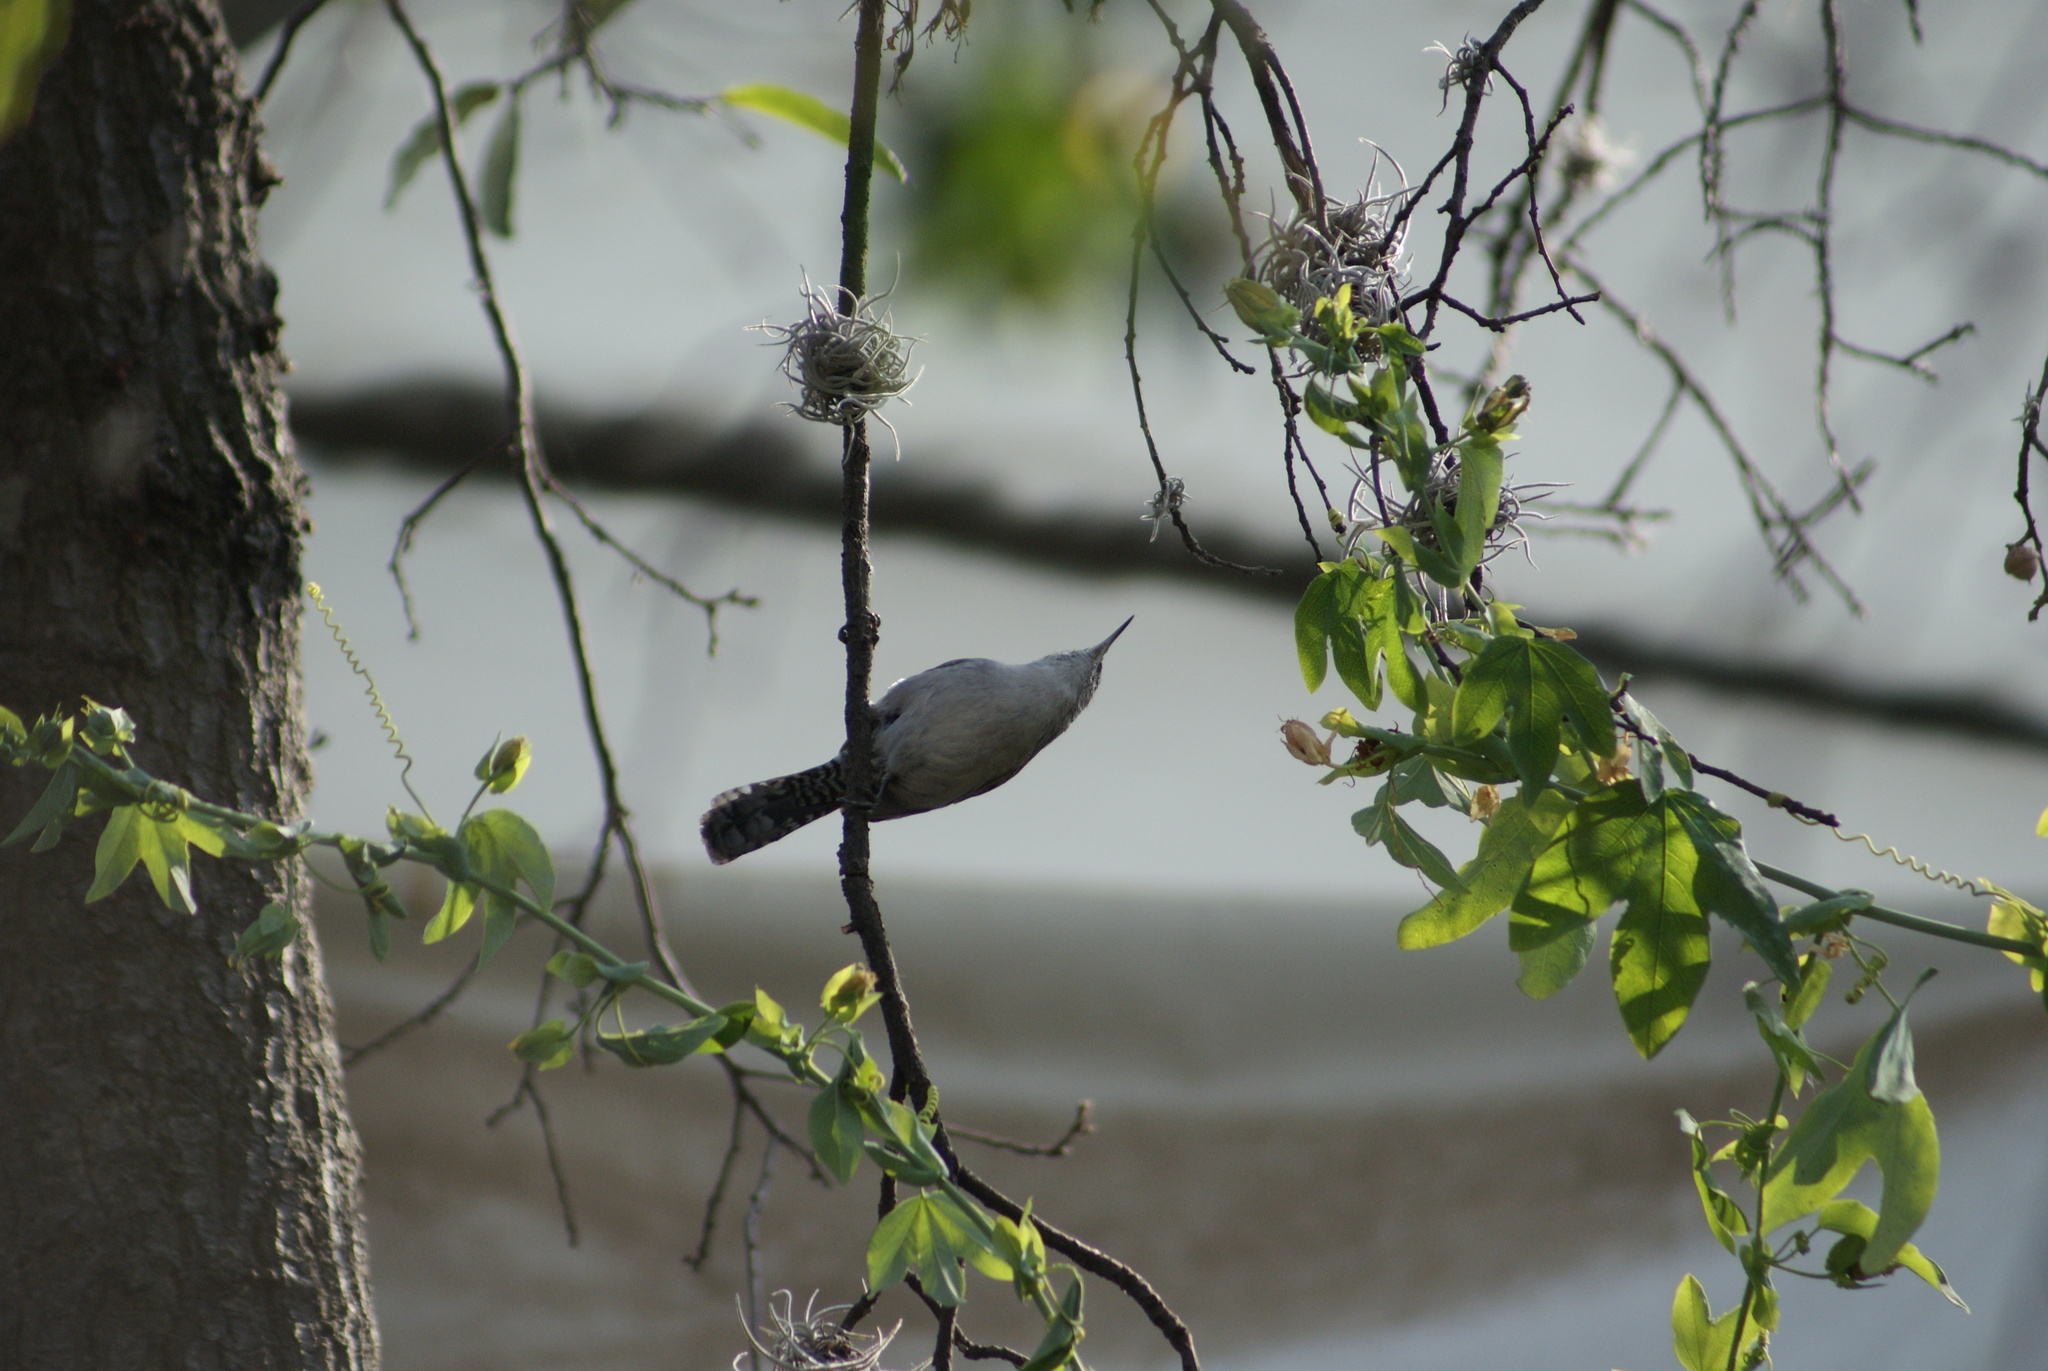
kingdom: Animalia
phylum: Chordata
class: Aves
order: Passeriformes
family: Troglodytidae
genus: Thryomanes
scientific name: Thryomanes bewickii
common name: Bewick's wren
